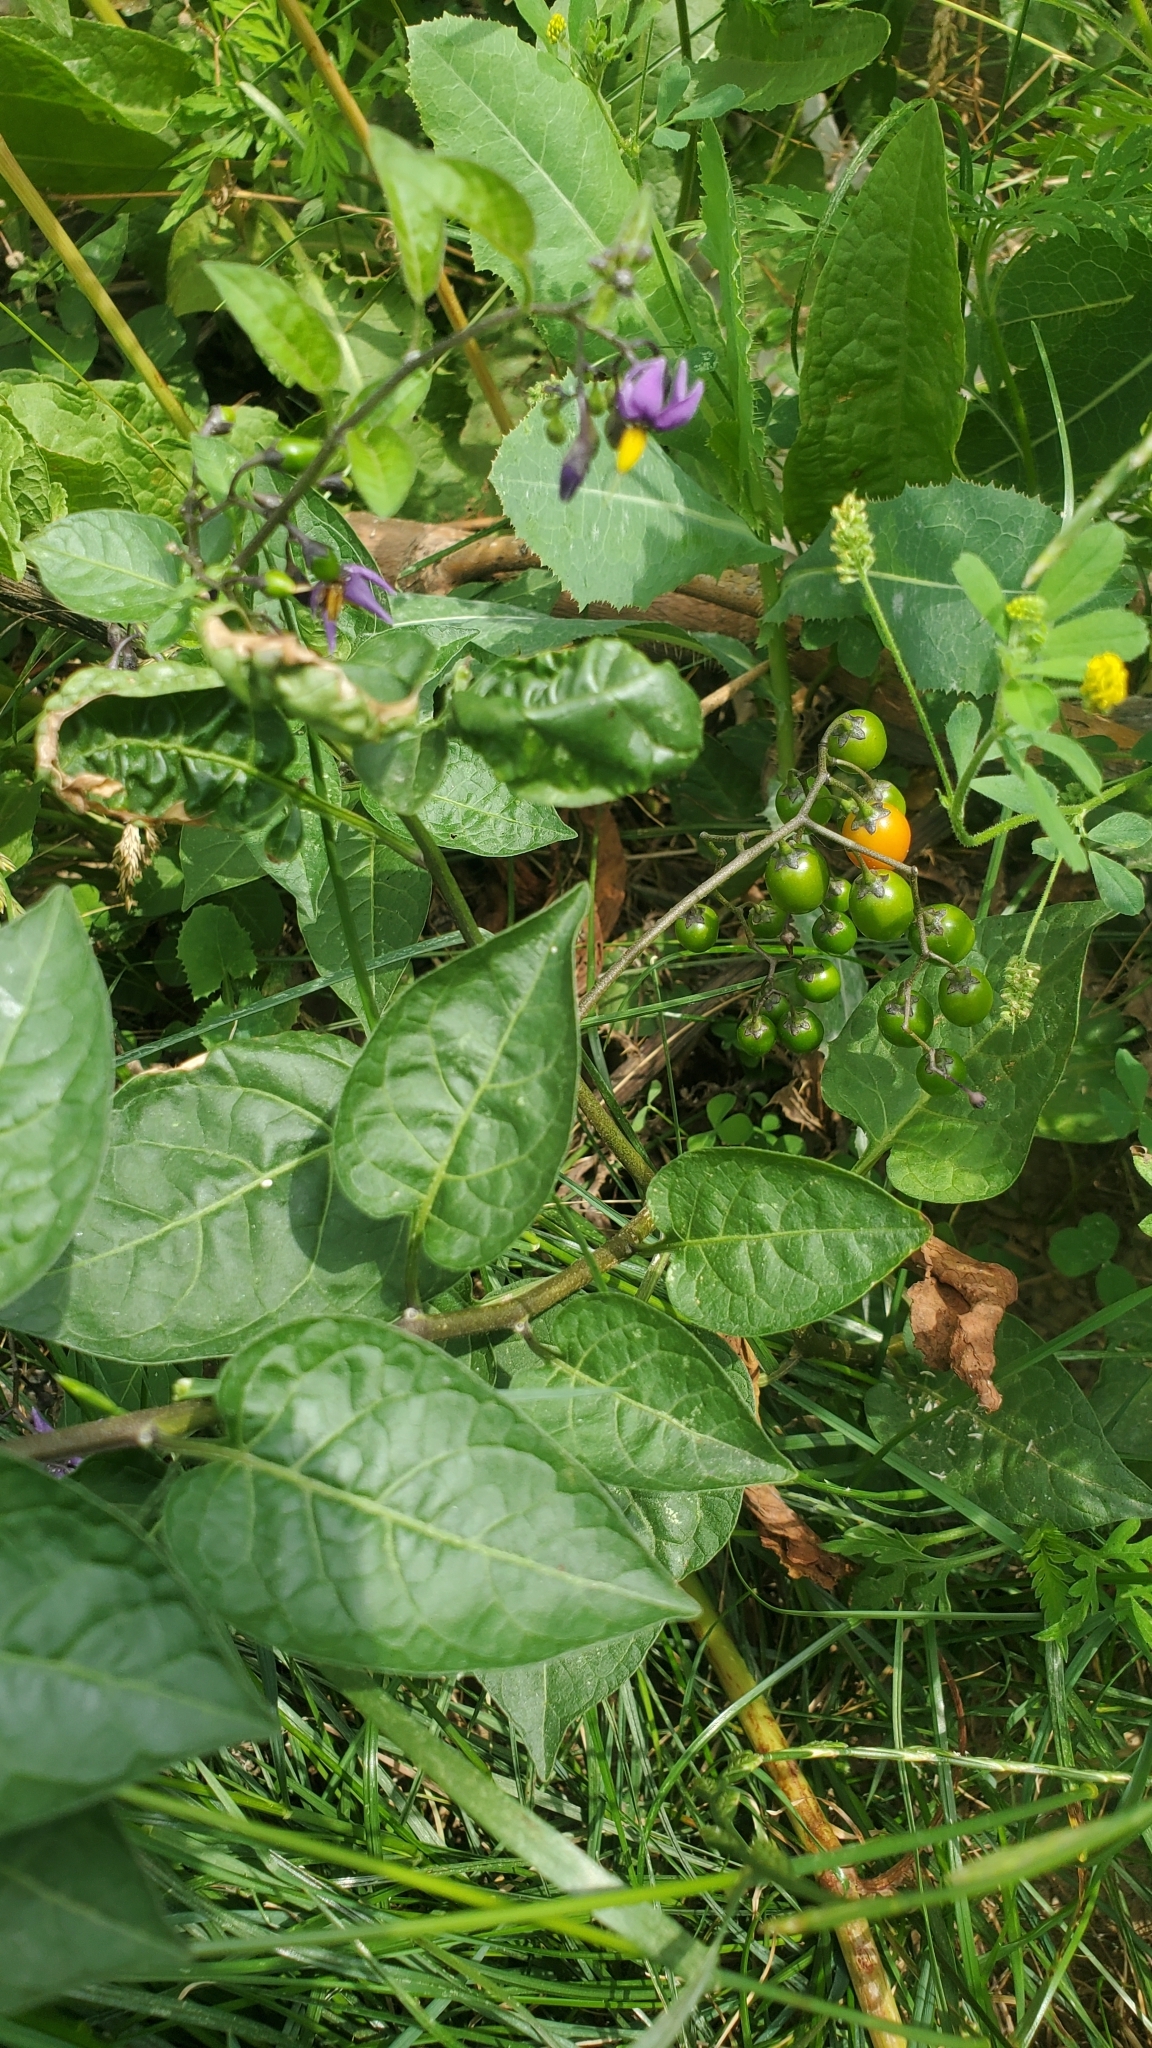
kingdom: Plantae
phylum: Tracheophyta
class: Magnoliopsida
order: Solanales
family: Solanaceae
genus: Solanum
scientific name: Solanum dulcamara
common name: Climbing nightshade
